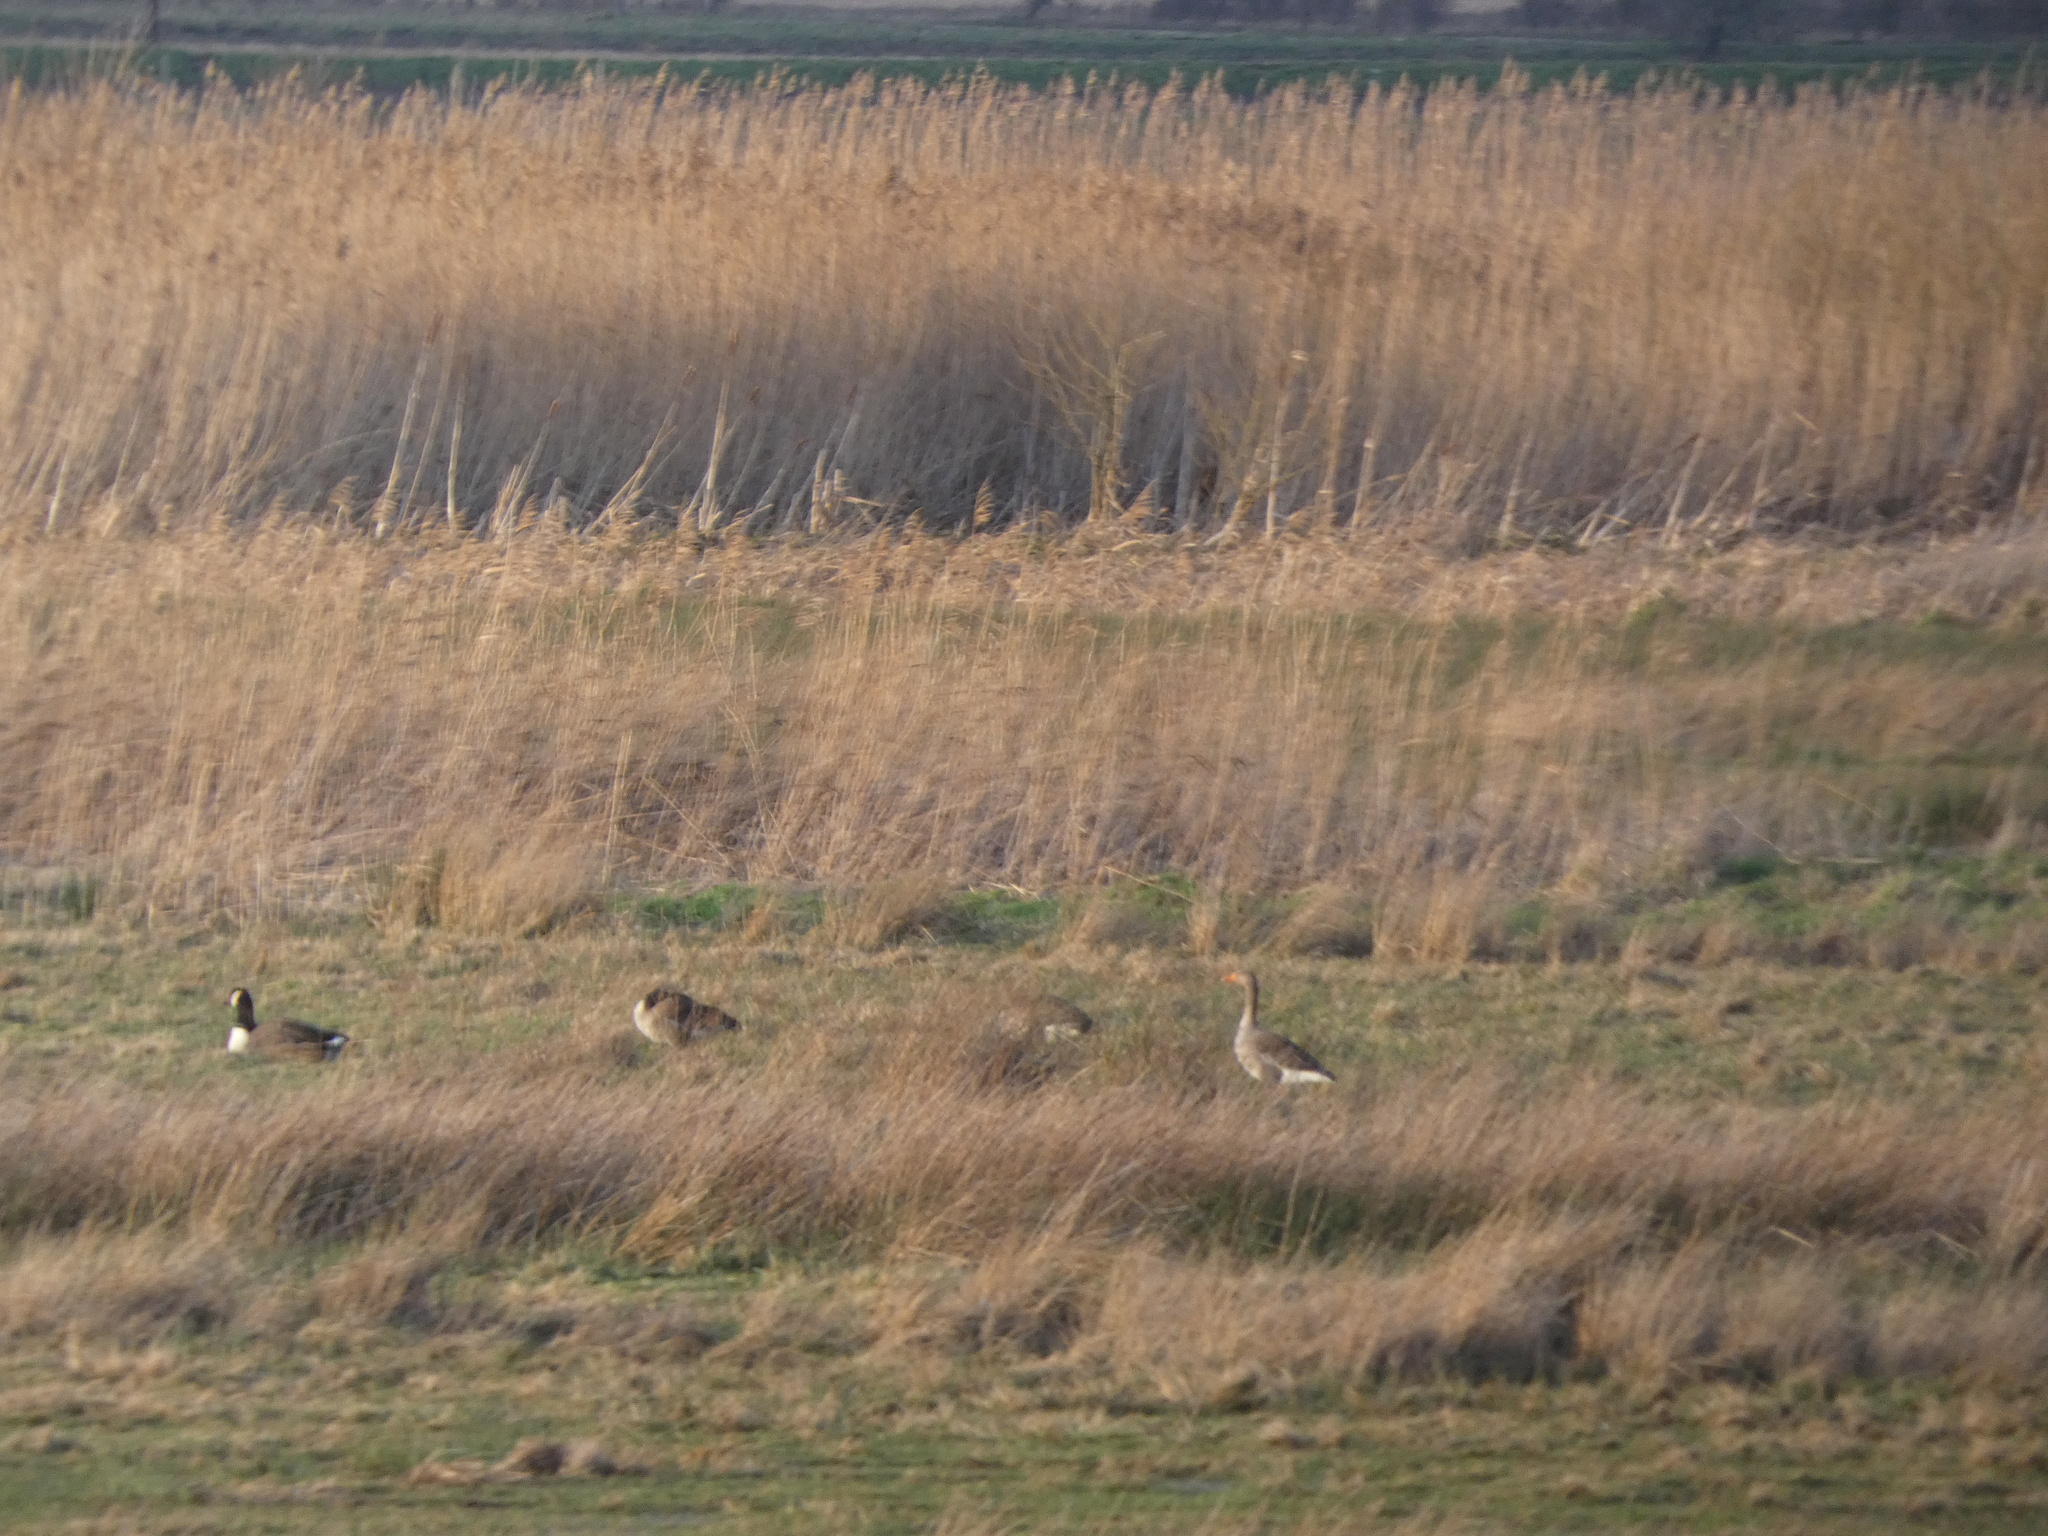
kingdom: Animalia
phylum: Chordata
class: Aves
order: Anseriformes
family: Anatidae
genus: Anser
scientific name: Anser anser
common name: Greylag goose
